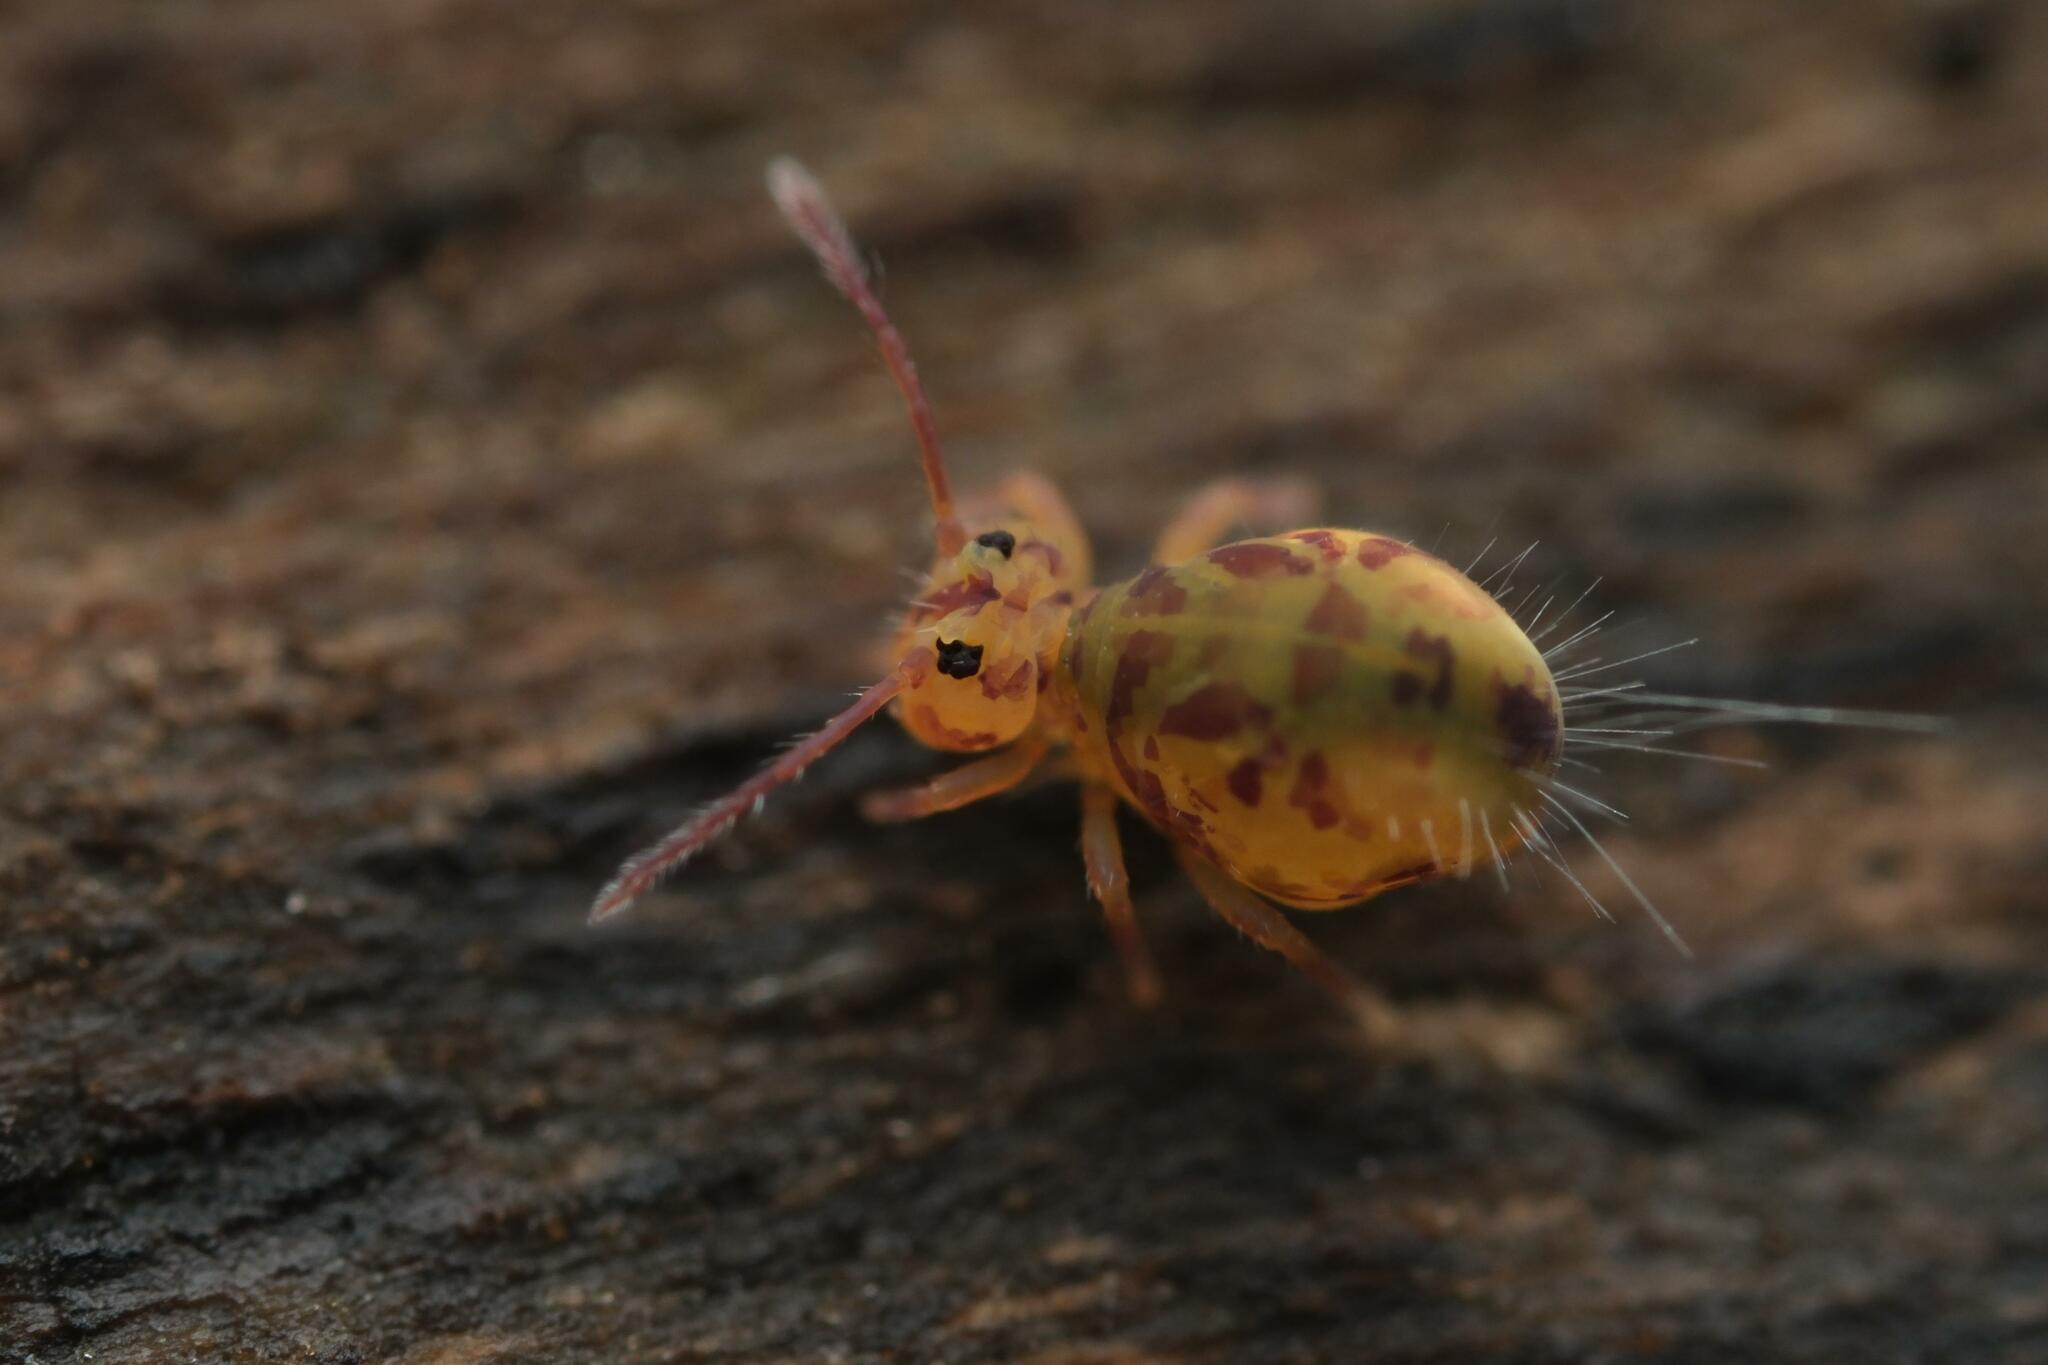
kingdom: Animalia
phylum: Arthropoda
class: Collembola
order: Symphypleona
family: Dicyrtomidae
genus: Dicyrtomina
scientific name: Dicyrtomina ornata
